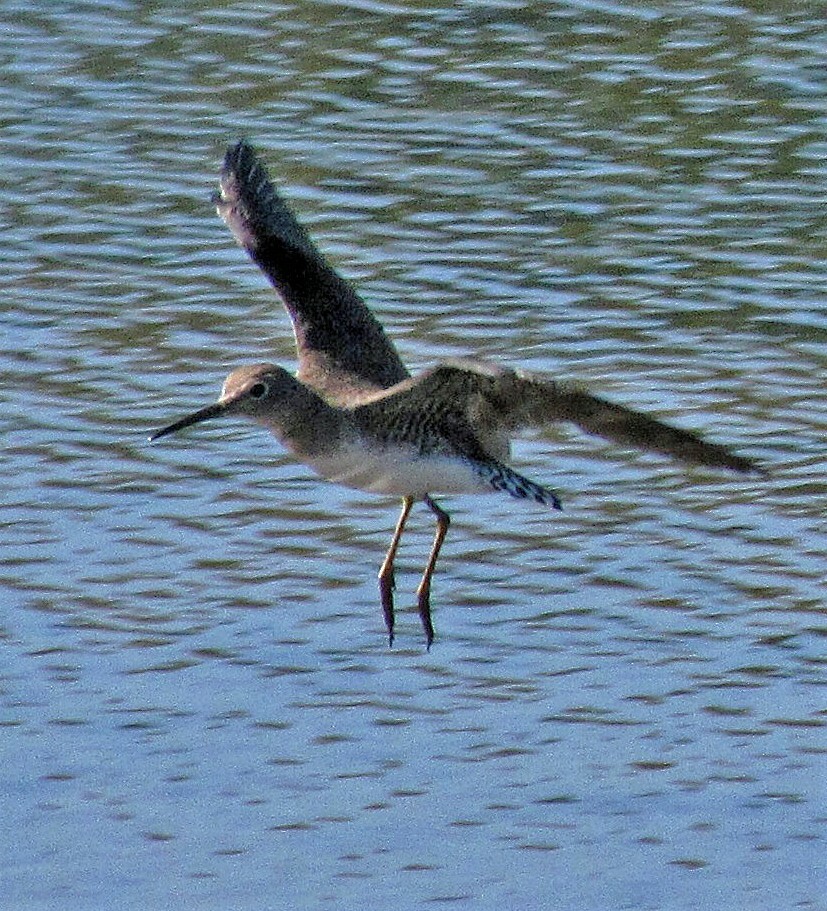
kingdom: Animalia
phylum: Chordata
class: Aves
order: Charadriiformes
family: Scolopacidae
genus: Tringa
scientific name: Tringa solitaria
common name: Solitary sandpiper
